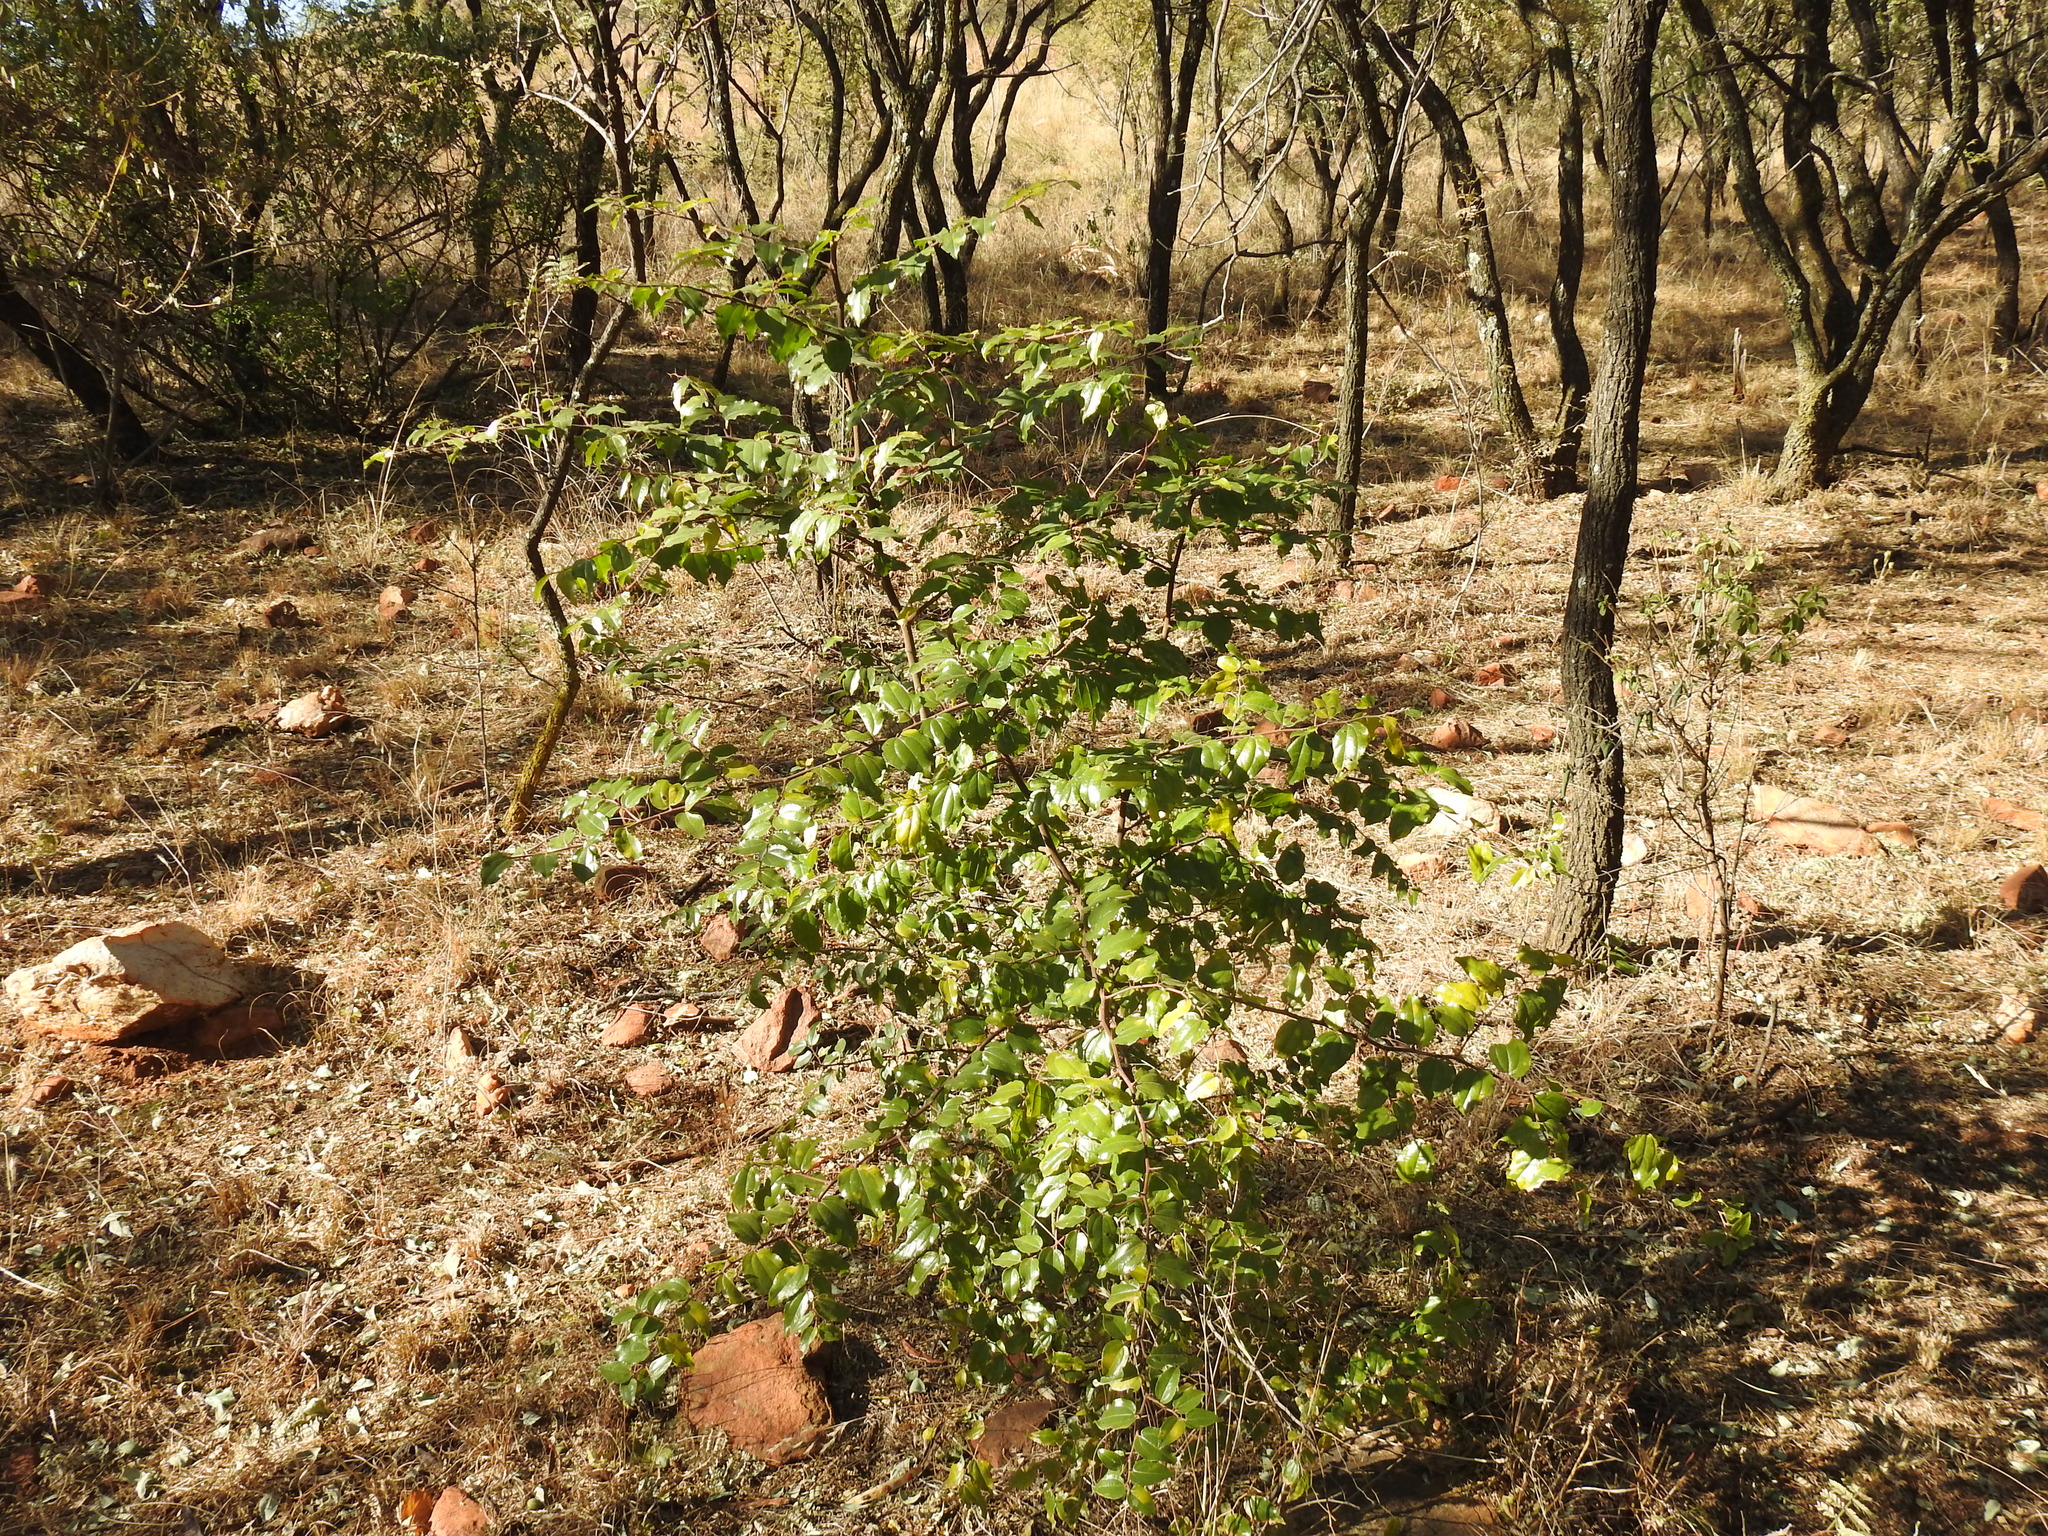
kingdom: Plantae
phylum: Tracheophyta
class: Magnoliopsida
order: Rosales
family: Rhamnaceae
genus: Ziziphus
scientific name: Ziziphus mucronata
